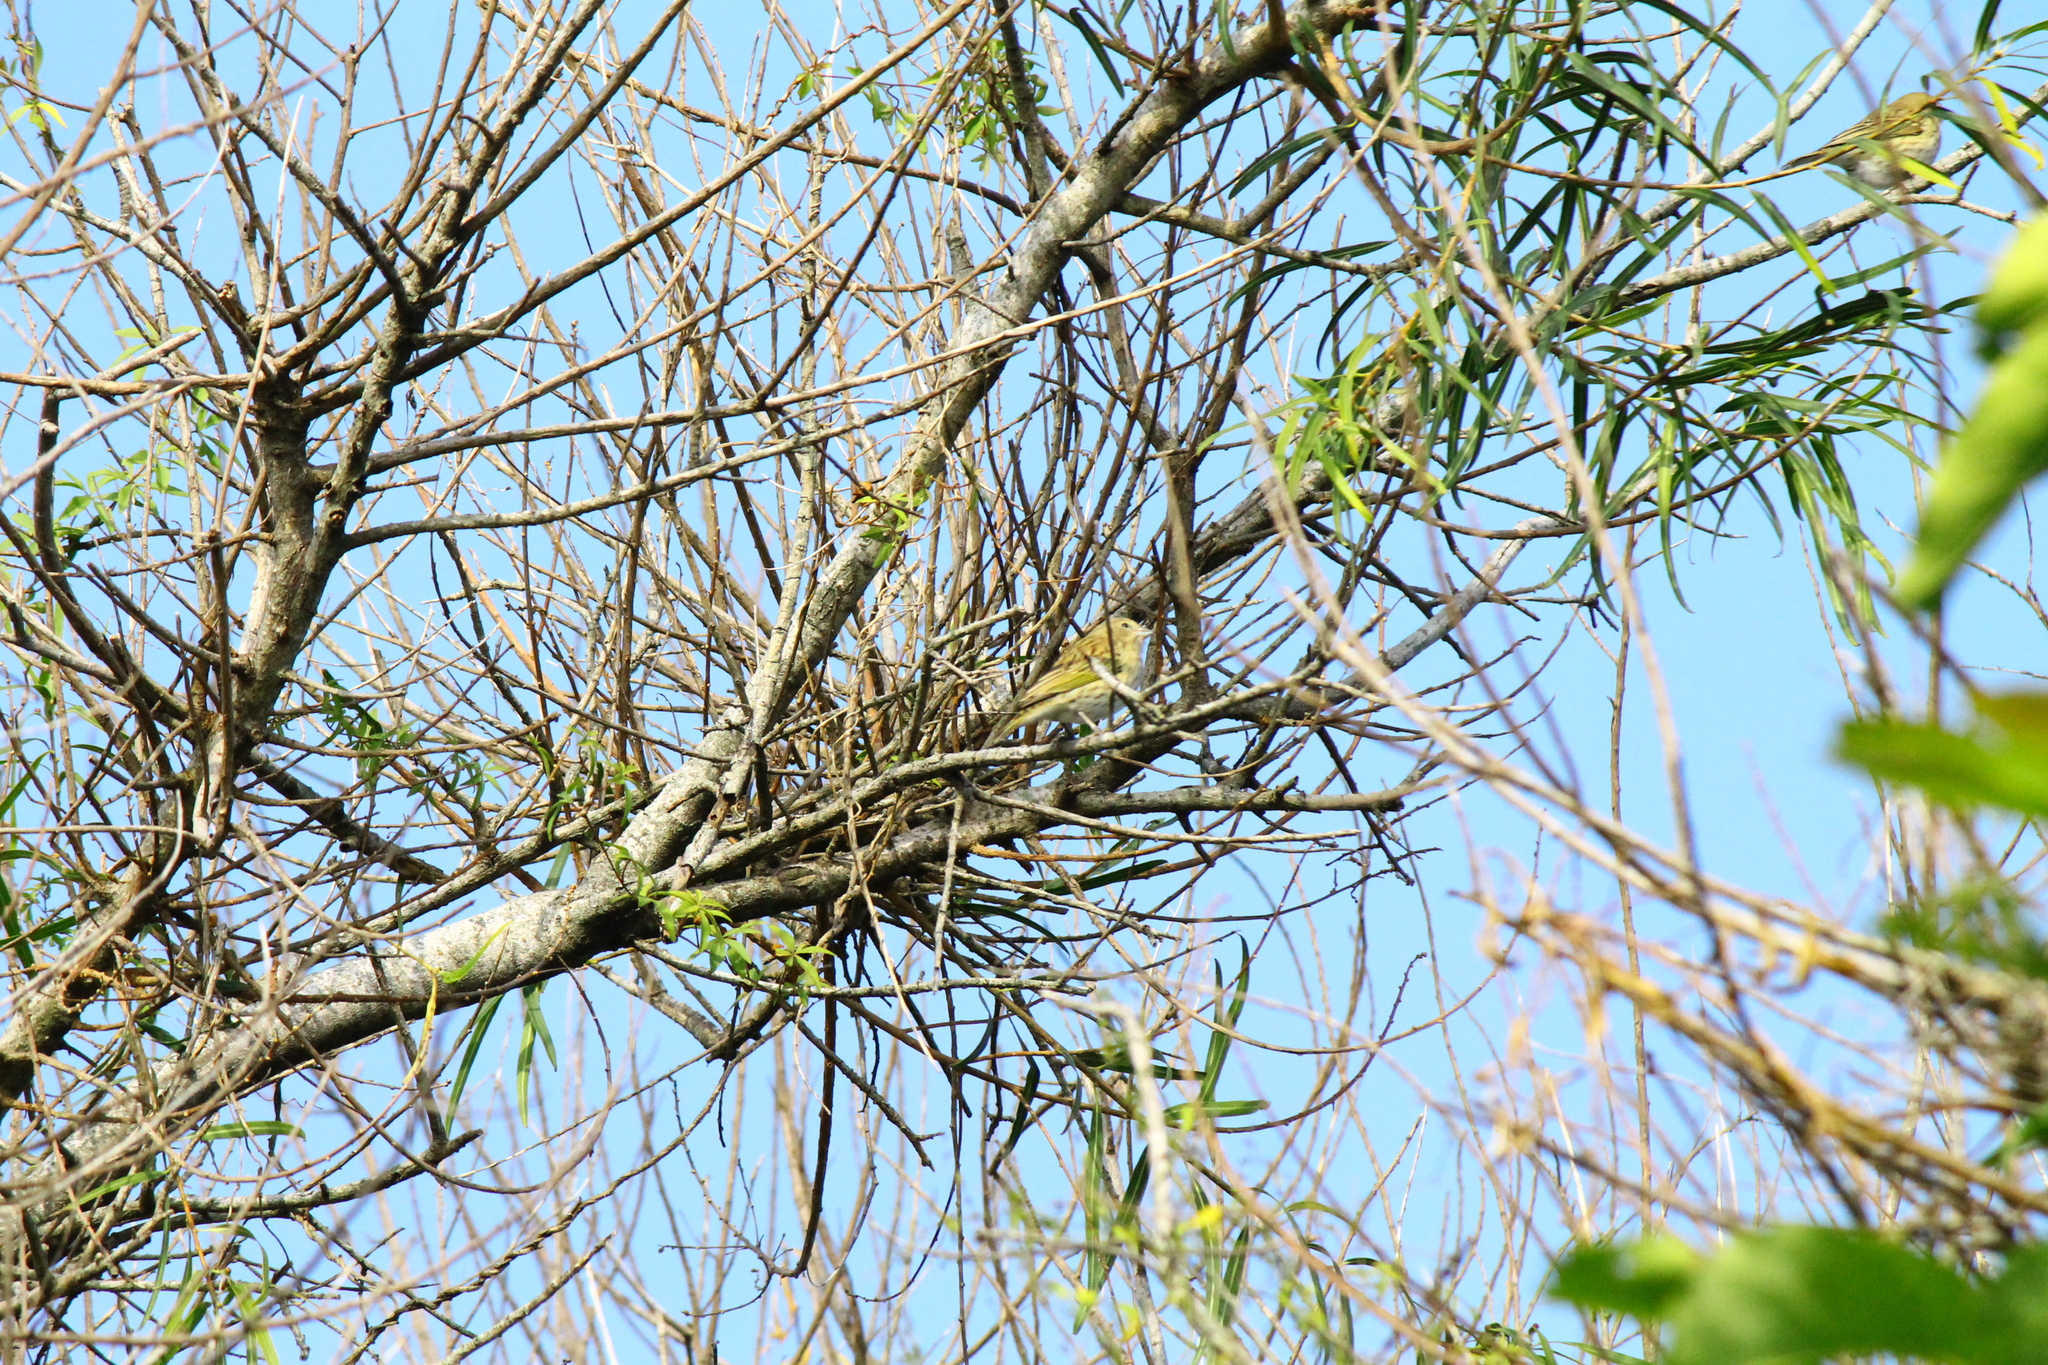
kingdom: Animalia
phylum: Chordata
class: Aves
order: Passeriformes
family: Thraupidae
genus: Sicalis
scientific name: Sicalis flaveola
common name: Saffron finch
